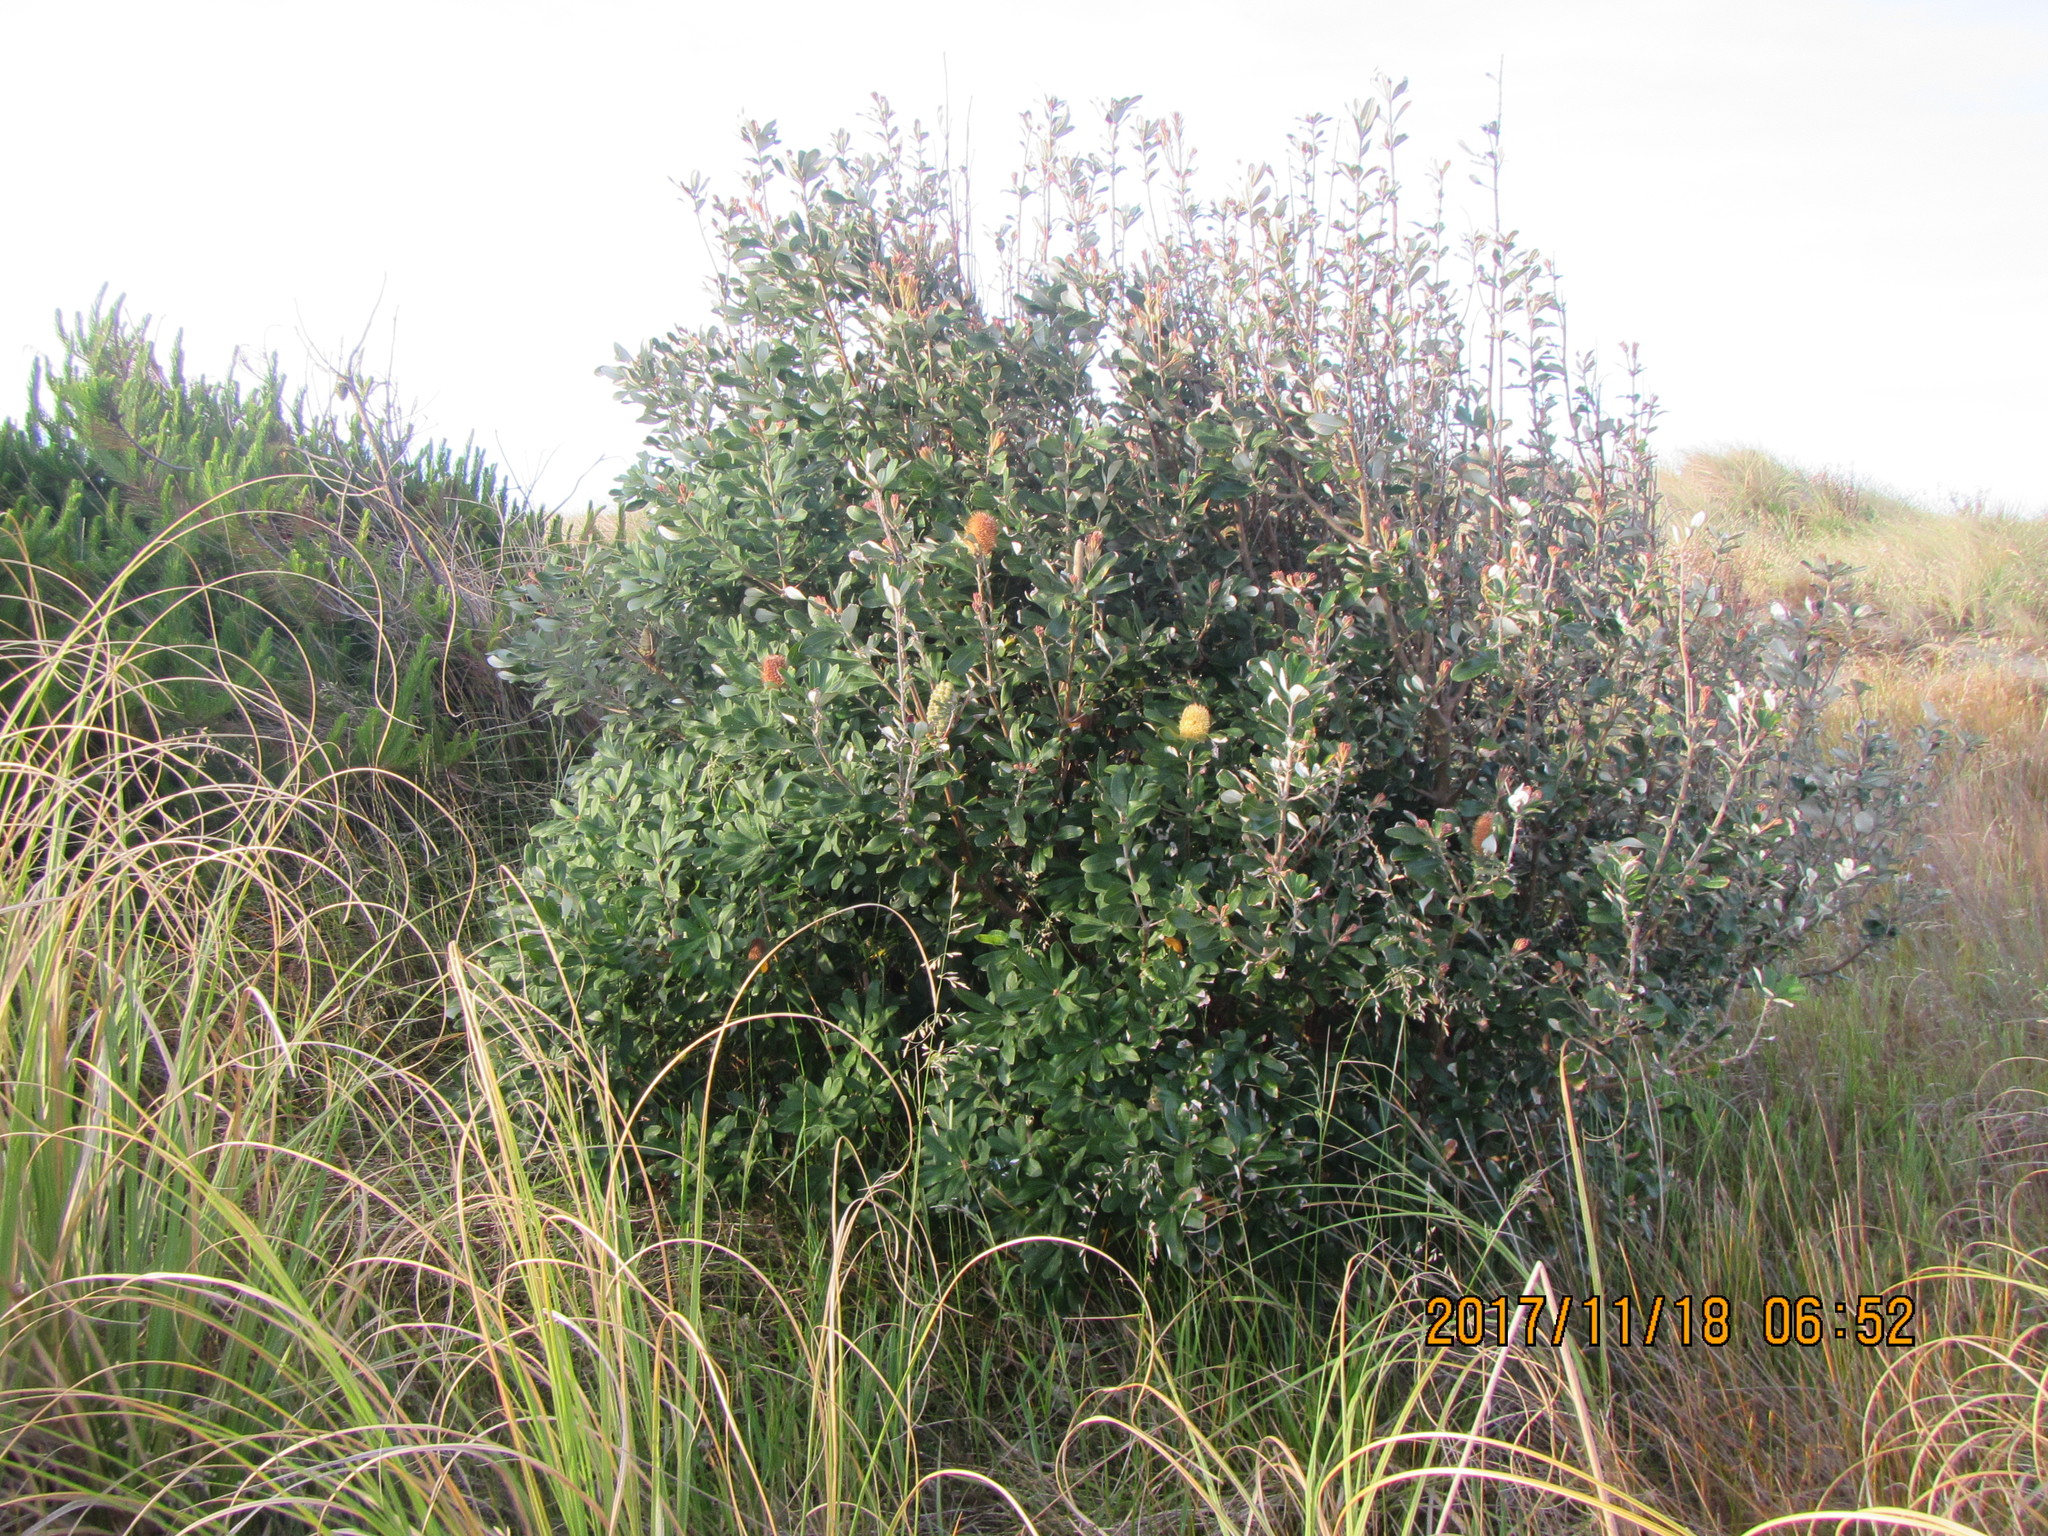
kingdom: Plantae
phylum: Tracheophyta
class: Magnoliopsida
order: Proteales
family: Proteaceae
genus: Banksia
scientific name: Banksia integrifolia
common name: White-honeysuckle
